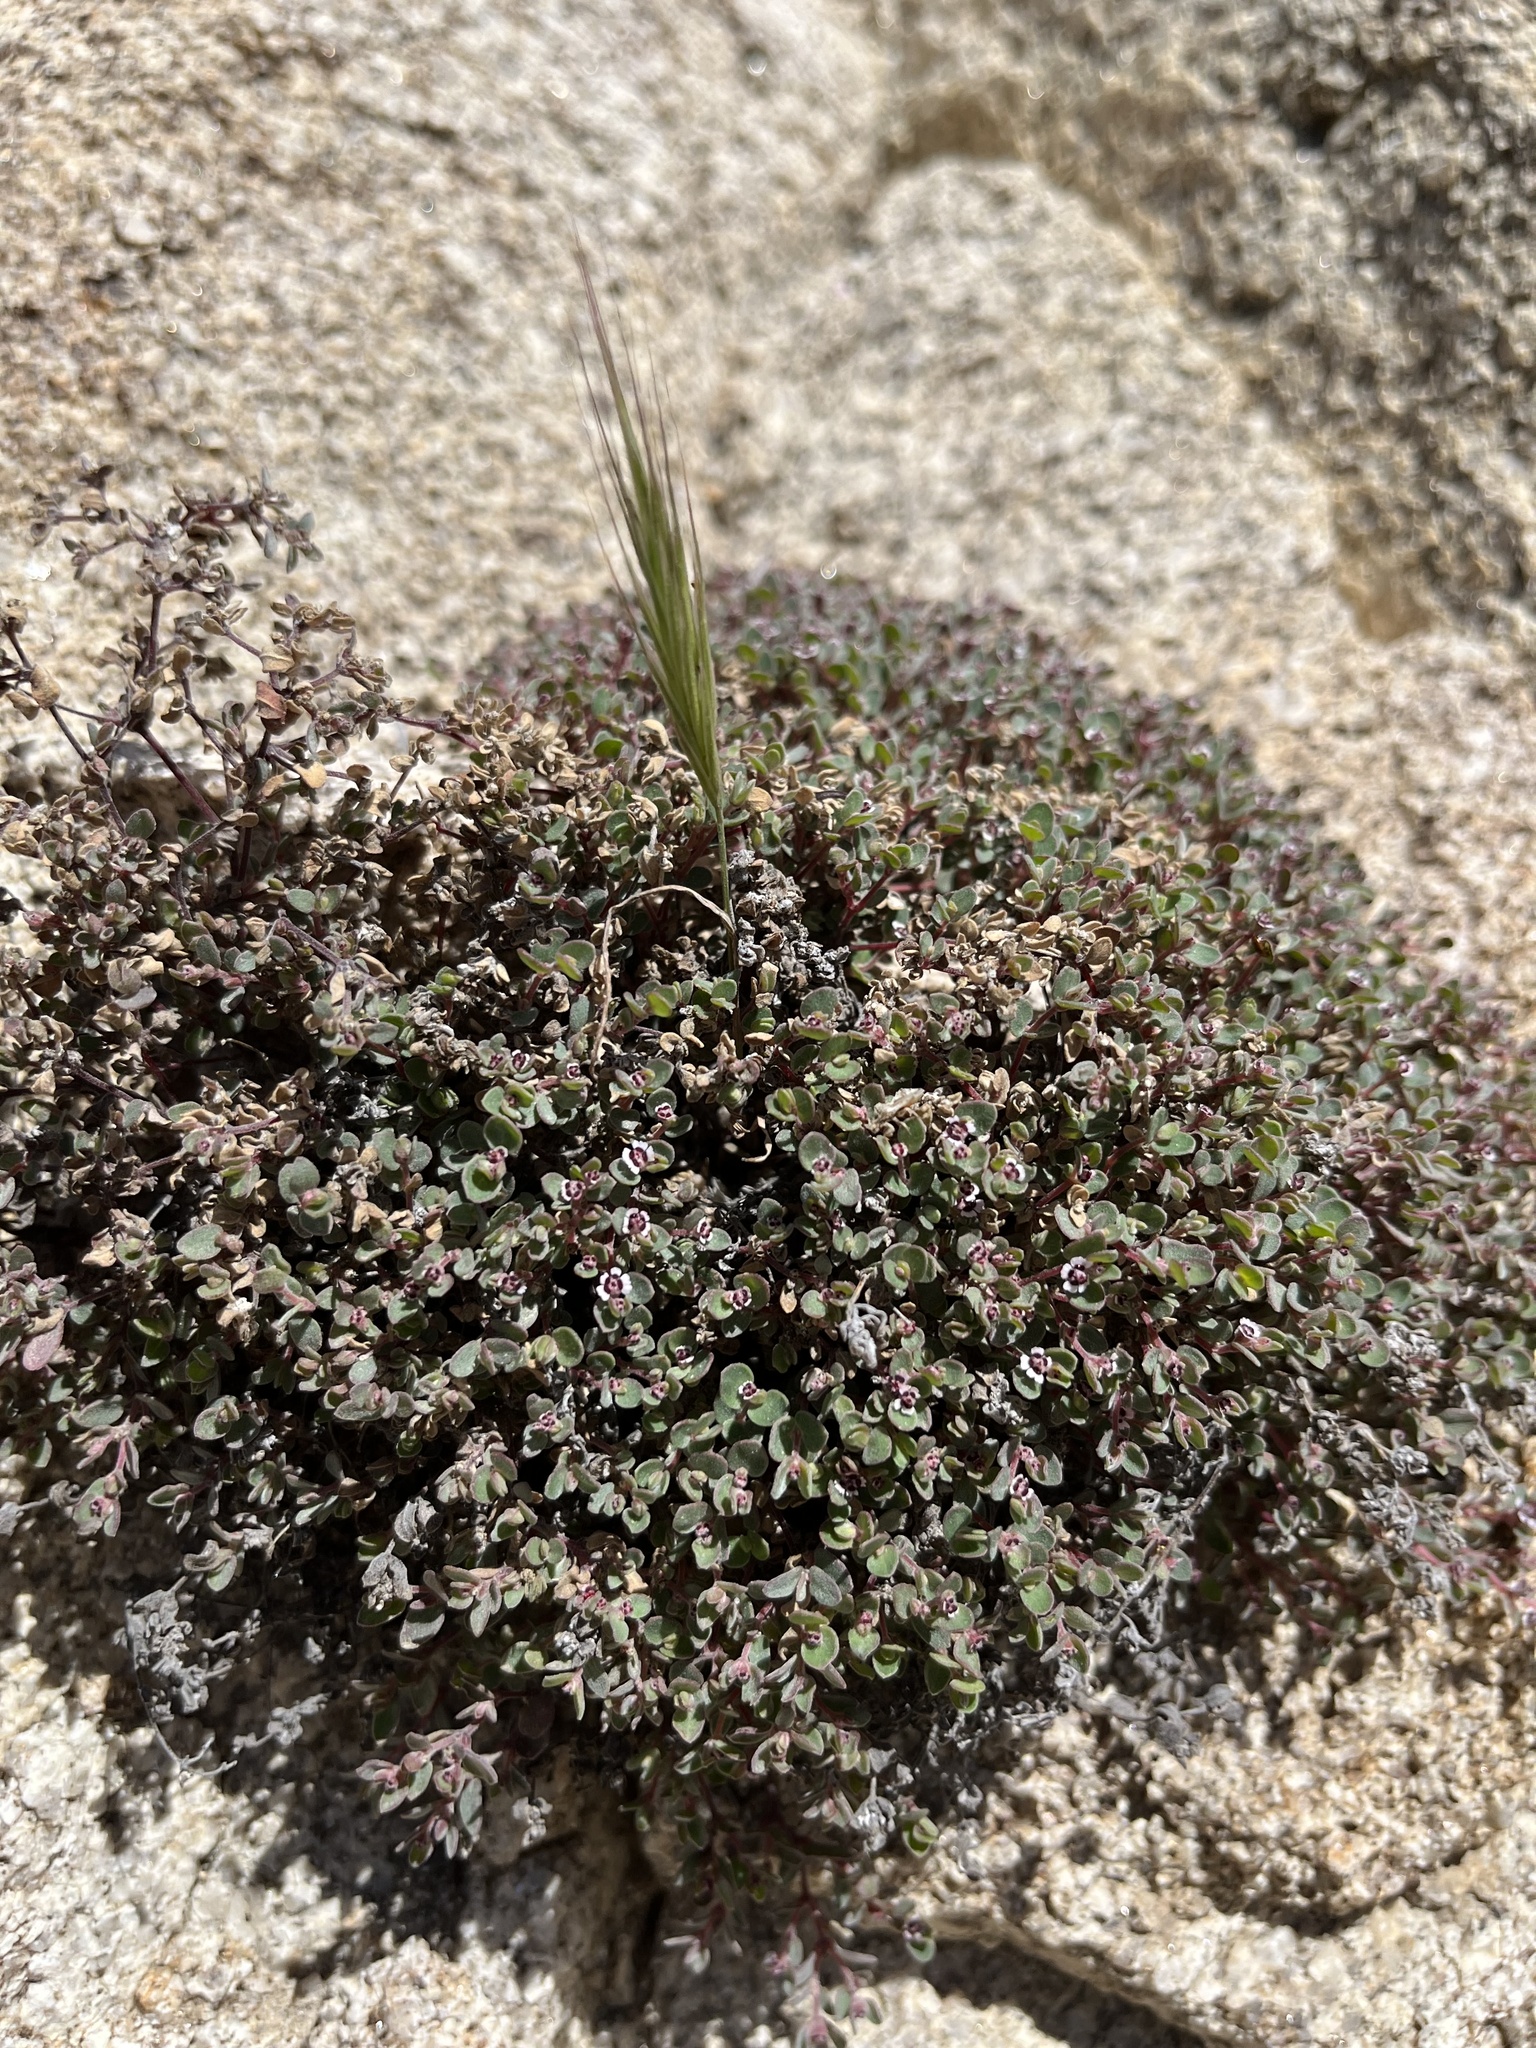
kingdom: Plantae
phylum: Tracheophyta
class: Magnoliopsida
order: Malpighiales
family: Euphorbiaceae
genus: Euphorbia
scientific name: Euphorbia melanadenia
